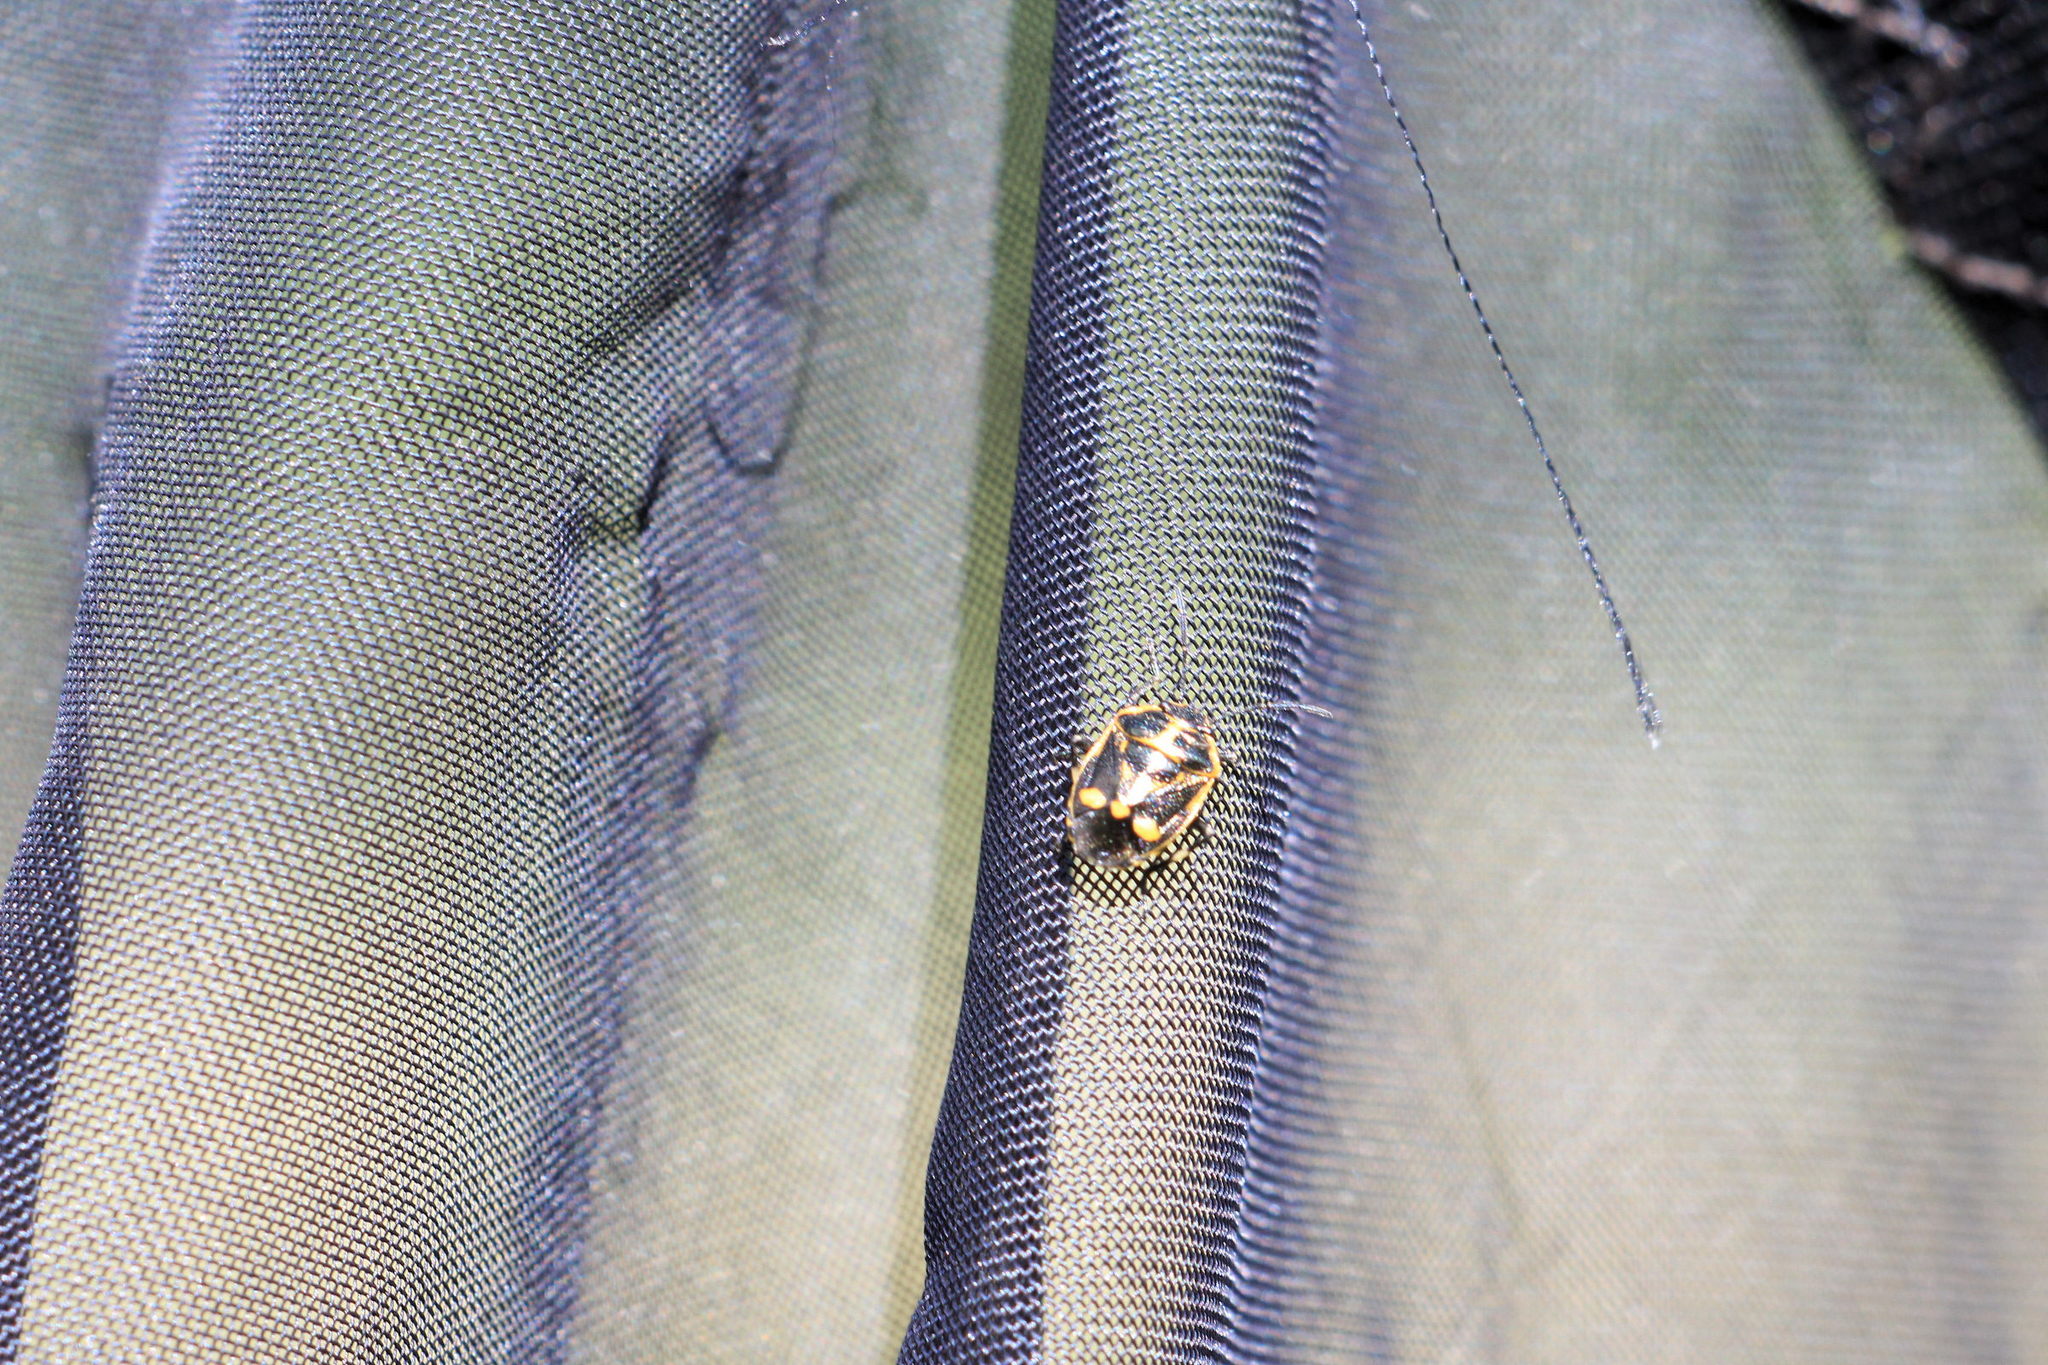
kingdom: Animalia
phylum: Arthropoda
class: Insecta
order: Hemiptera
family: Pentatomidae
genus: Eurydema
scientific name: Eurydema oleracea
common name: Cabbage bug
